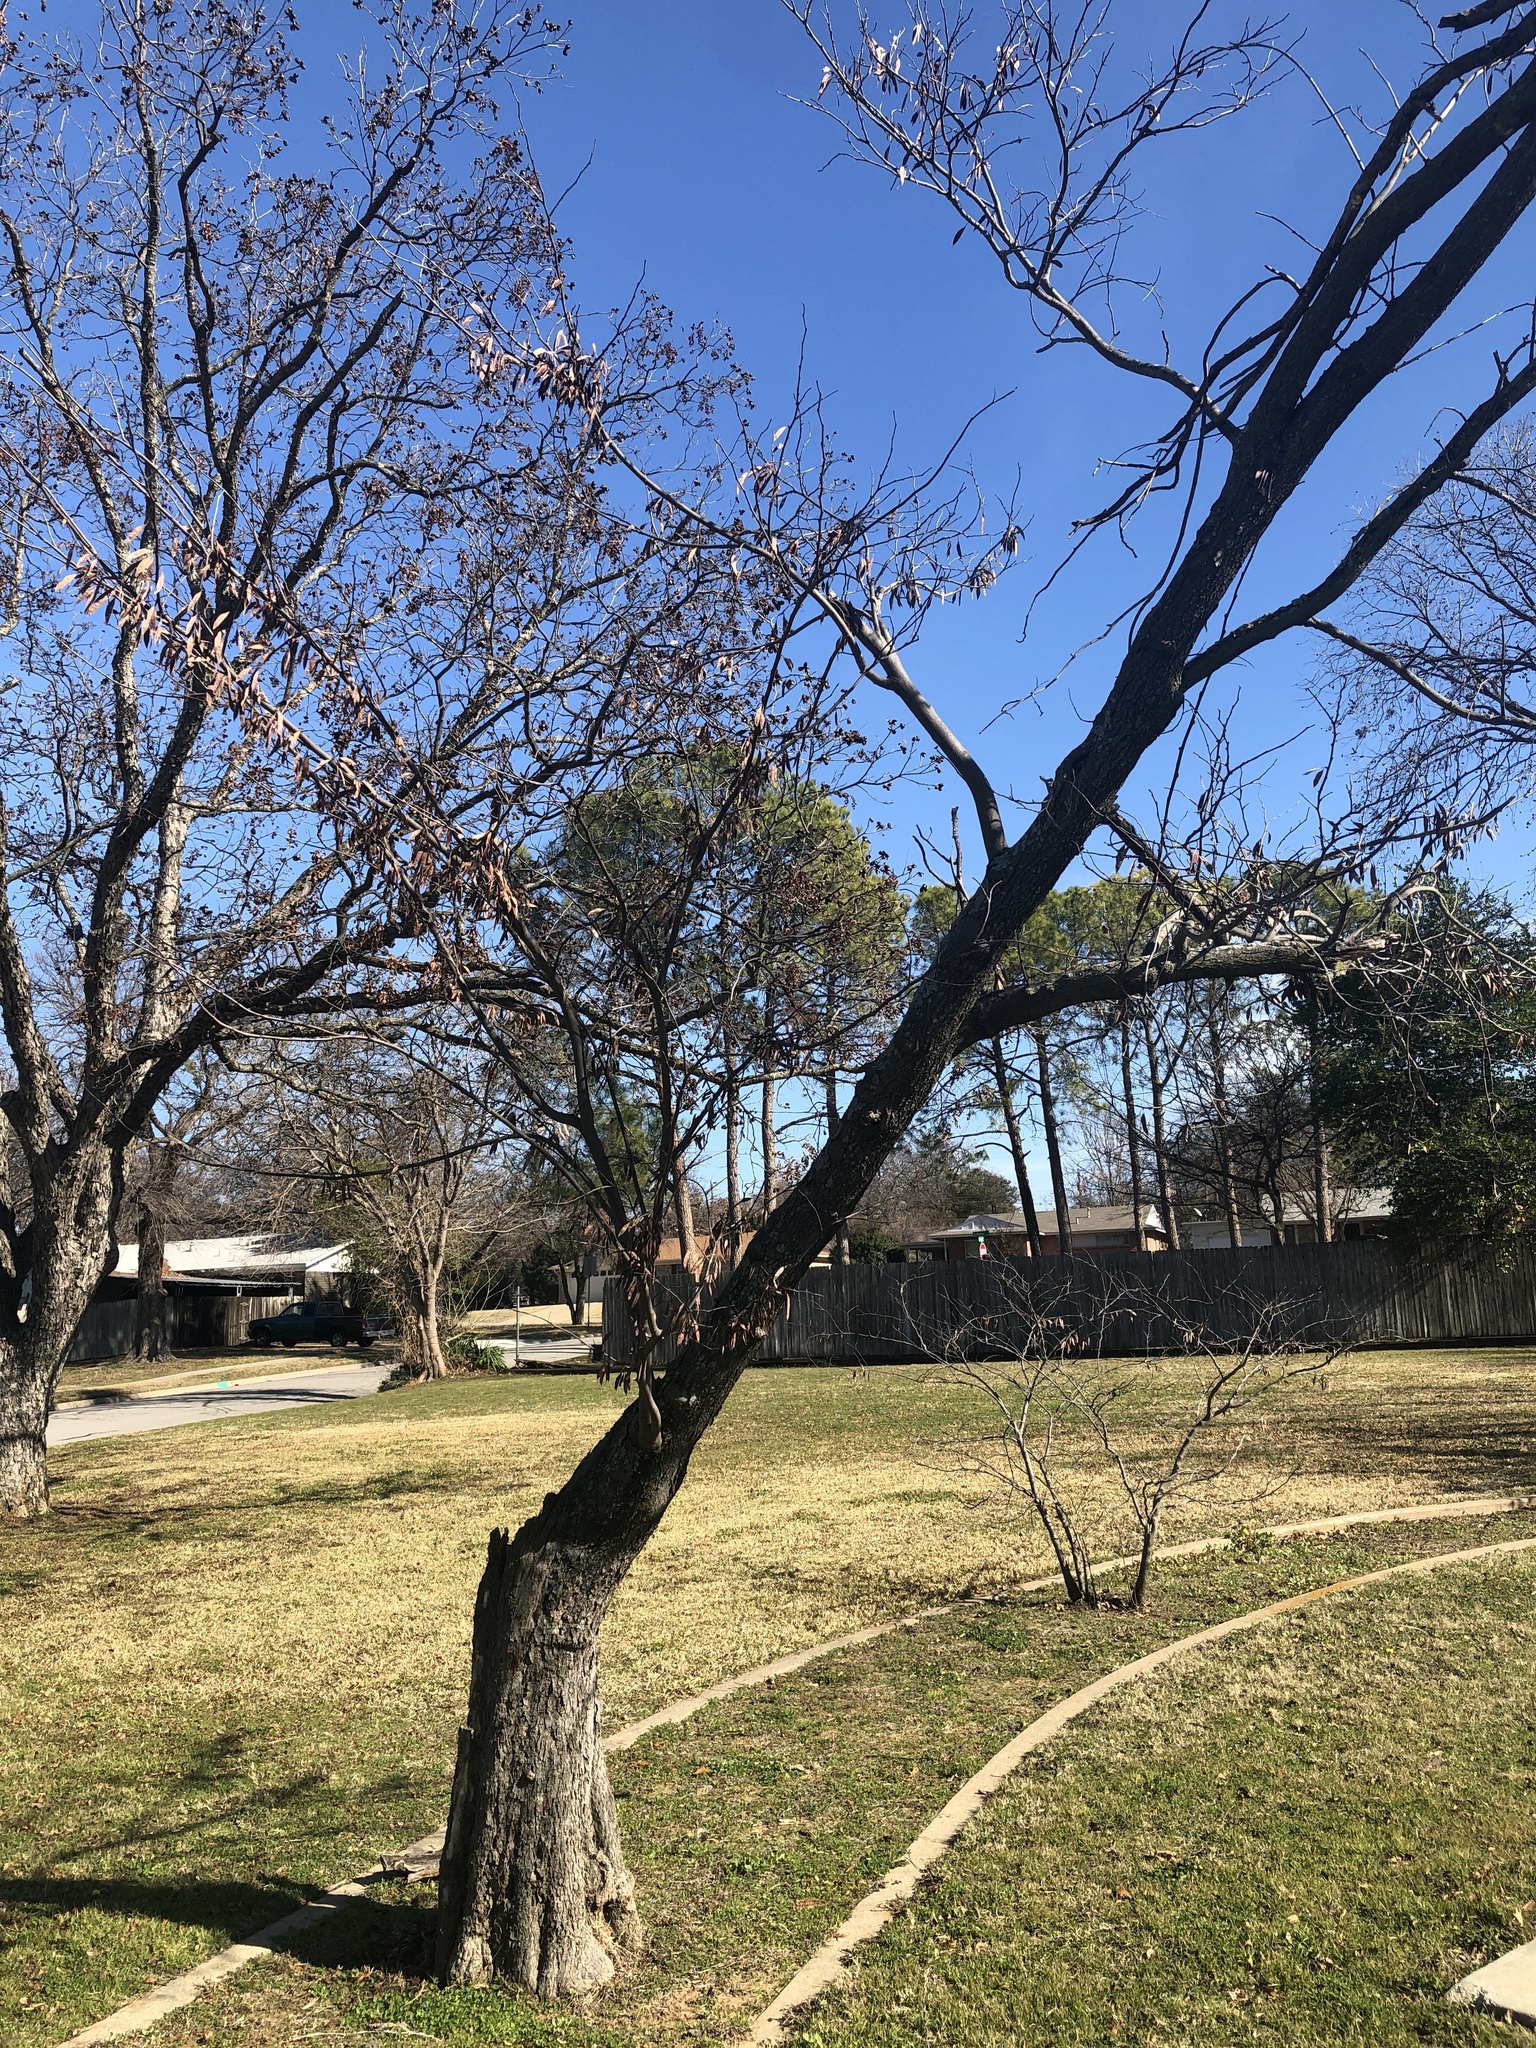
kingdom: Plantae
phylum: Tracheophyta
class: Magnoliopsida
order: Fabales
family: Fabaceae
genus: Cercis
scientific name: Cercis canadensis
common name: Eastern redbud
